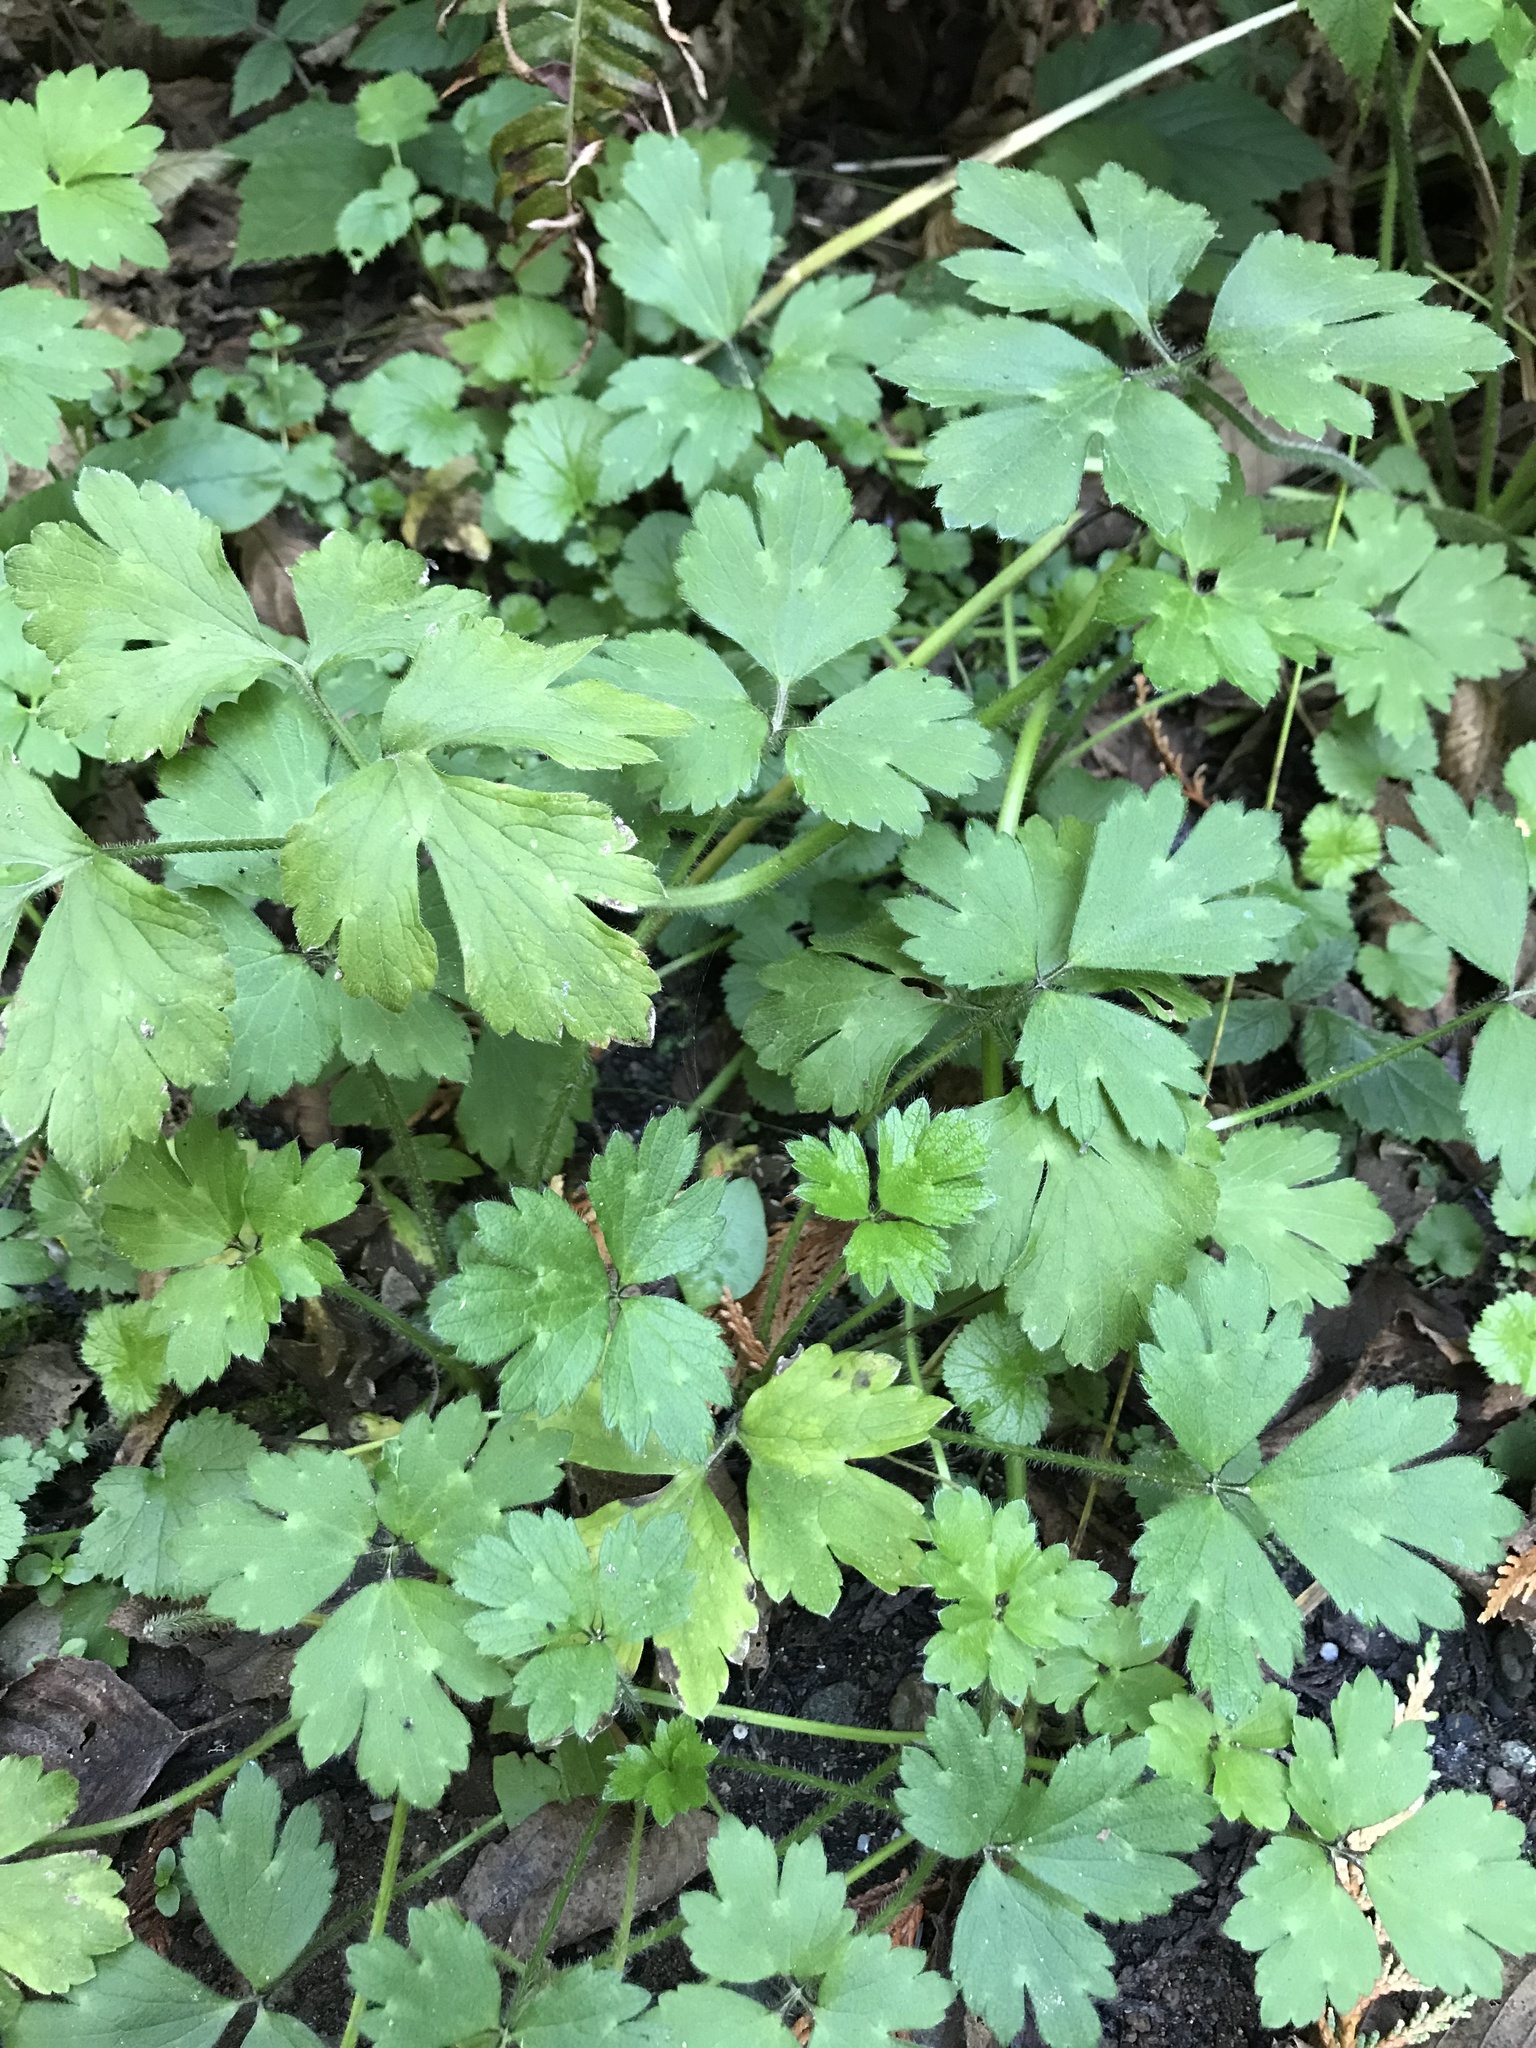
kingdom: Plantae
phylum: Tracheophyta
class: Magnoliopsida
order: Ranunculales
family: Ranunculaceae
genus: Ranunculus
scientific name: Ranunculus repens
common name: Creeping buttercup
